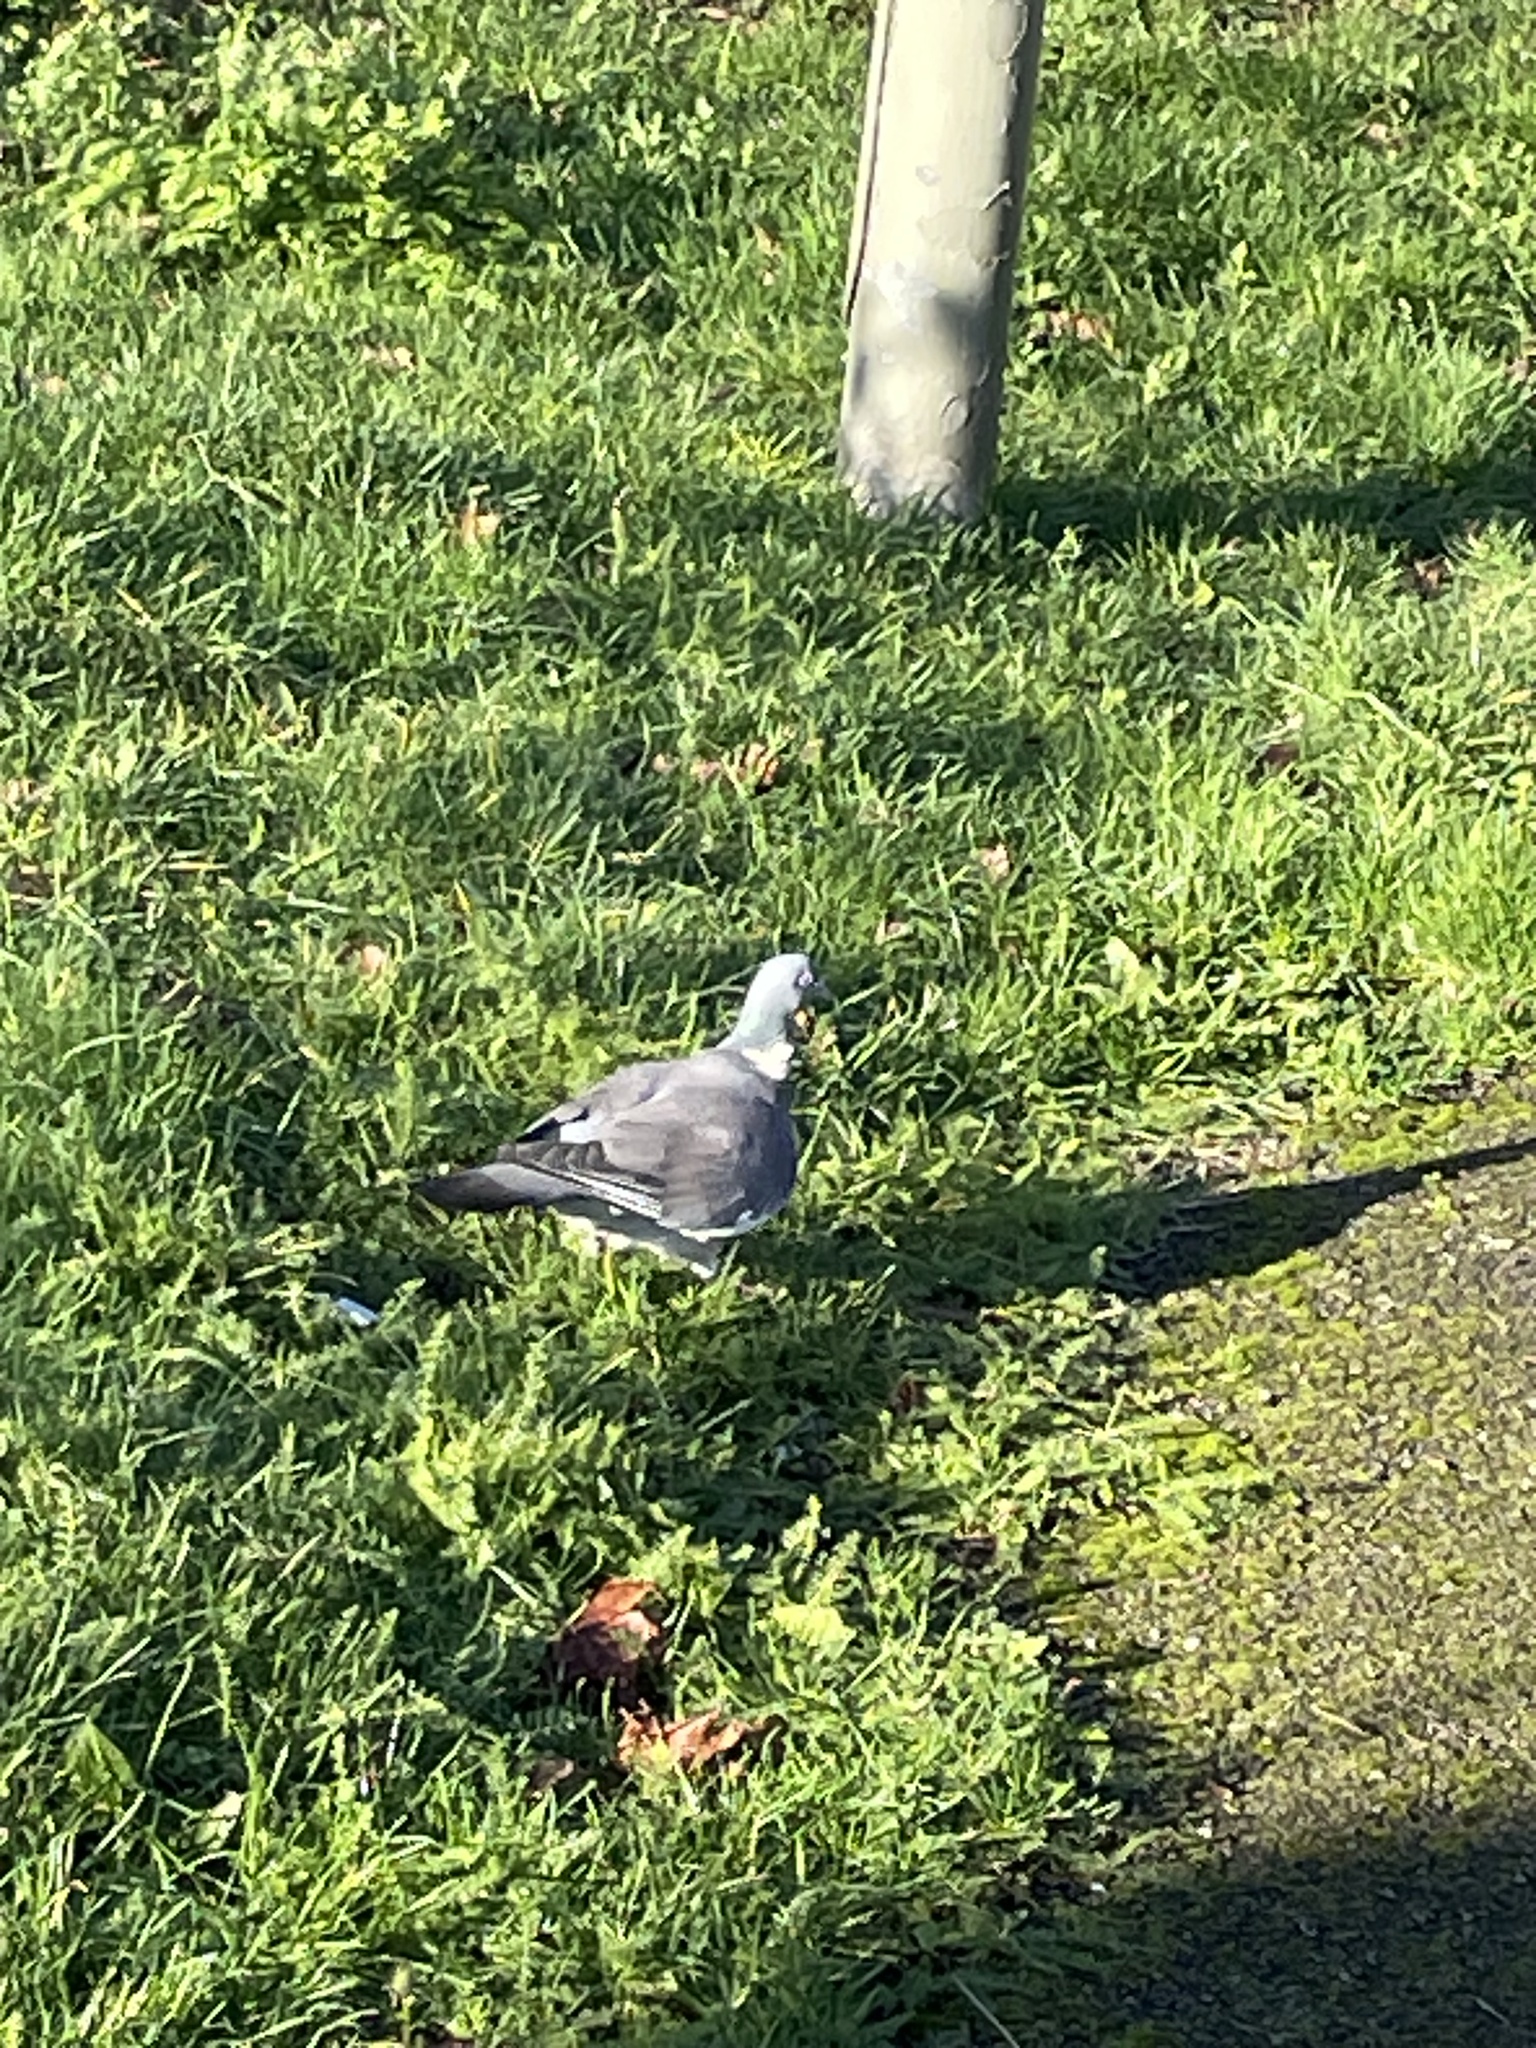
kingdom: Animalia
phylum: Chordata
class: Aves
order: Columbiformes
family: Columbidae
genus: Columba
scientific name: Columba palumbus
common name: Common wood pigeon
